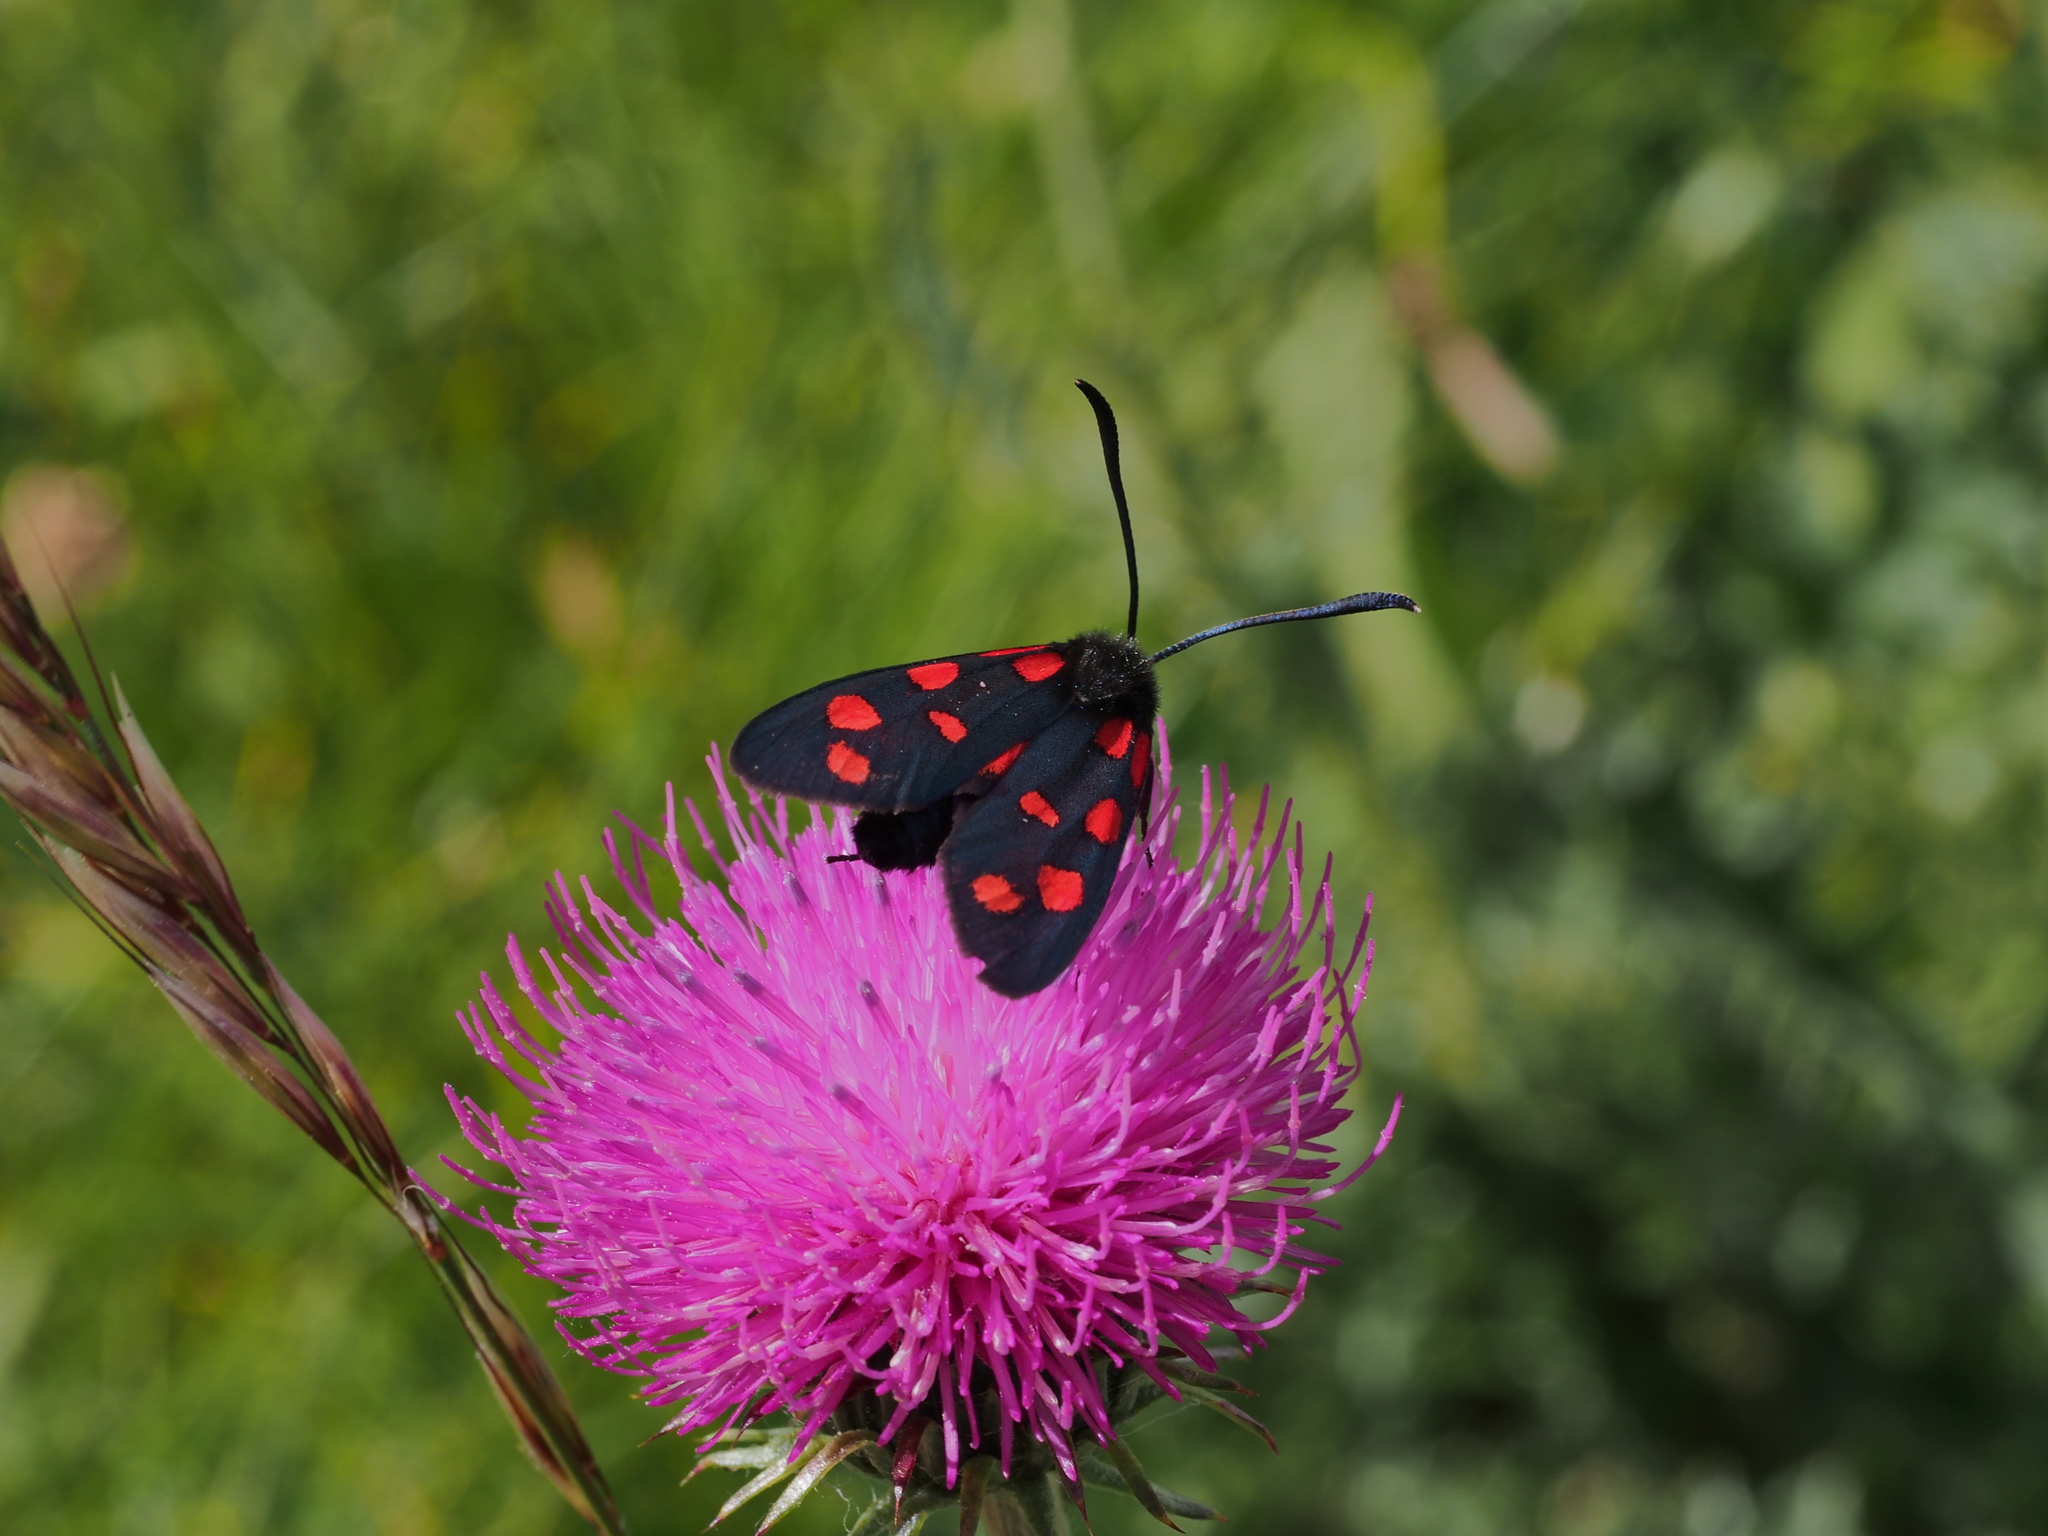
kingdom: Animalia
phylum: Arthropoda
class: Insecta
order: Lepidoptera
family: Zygaenidae
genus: Zygaena
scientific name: Zygaena transalpina
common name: Southern six spot burnet
